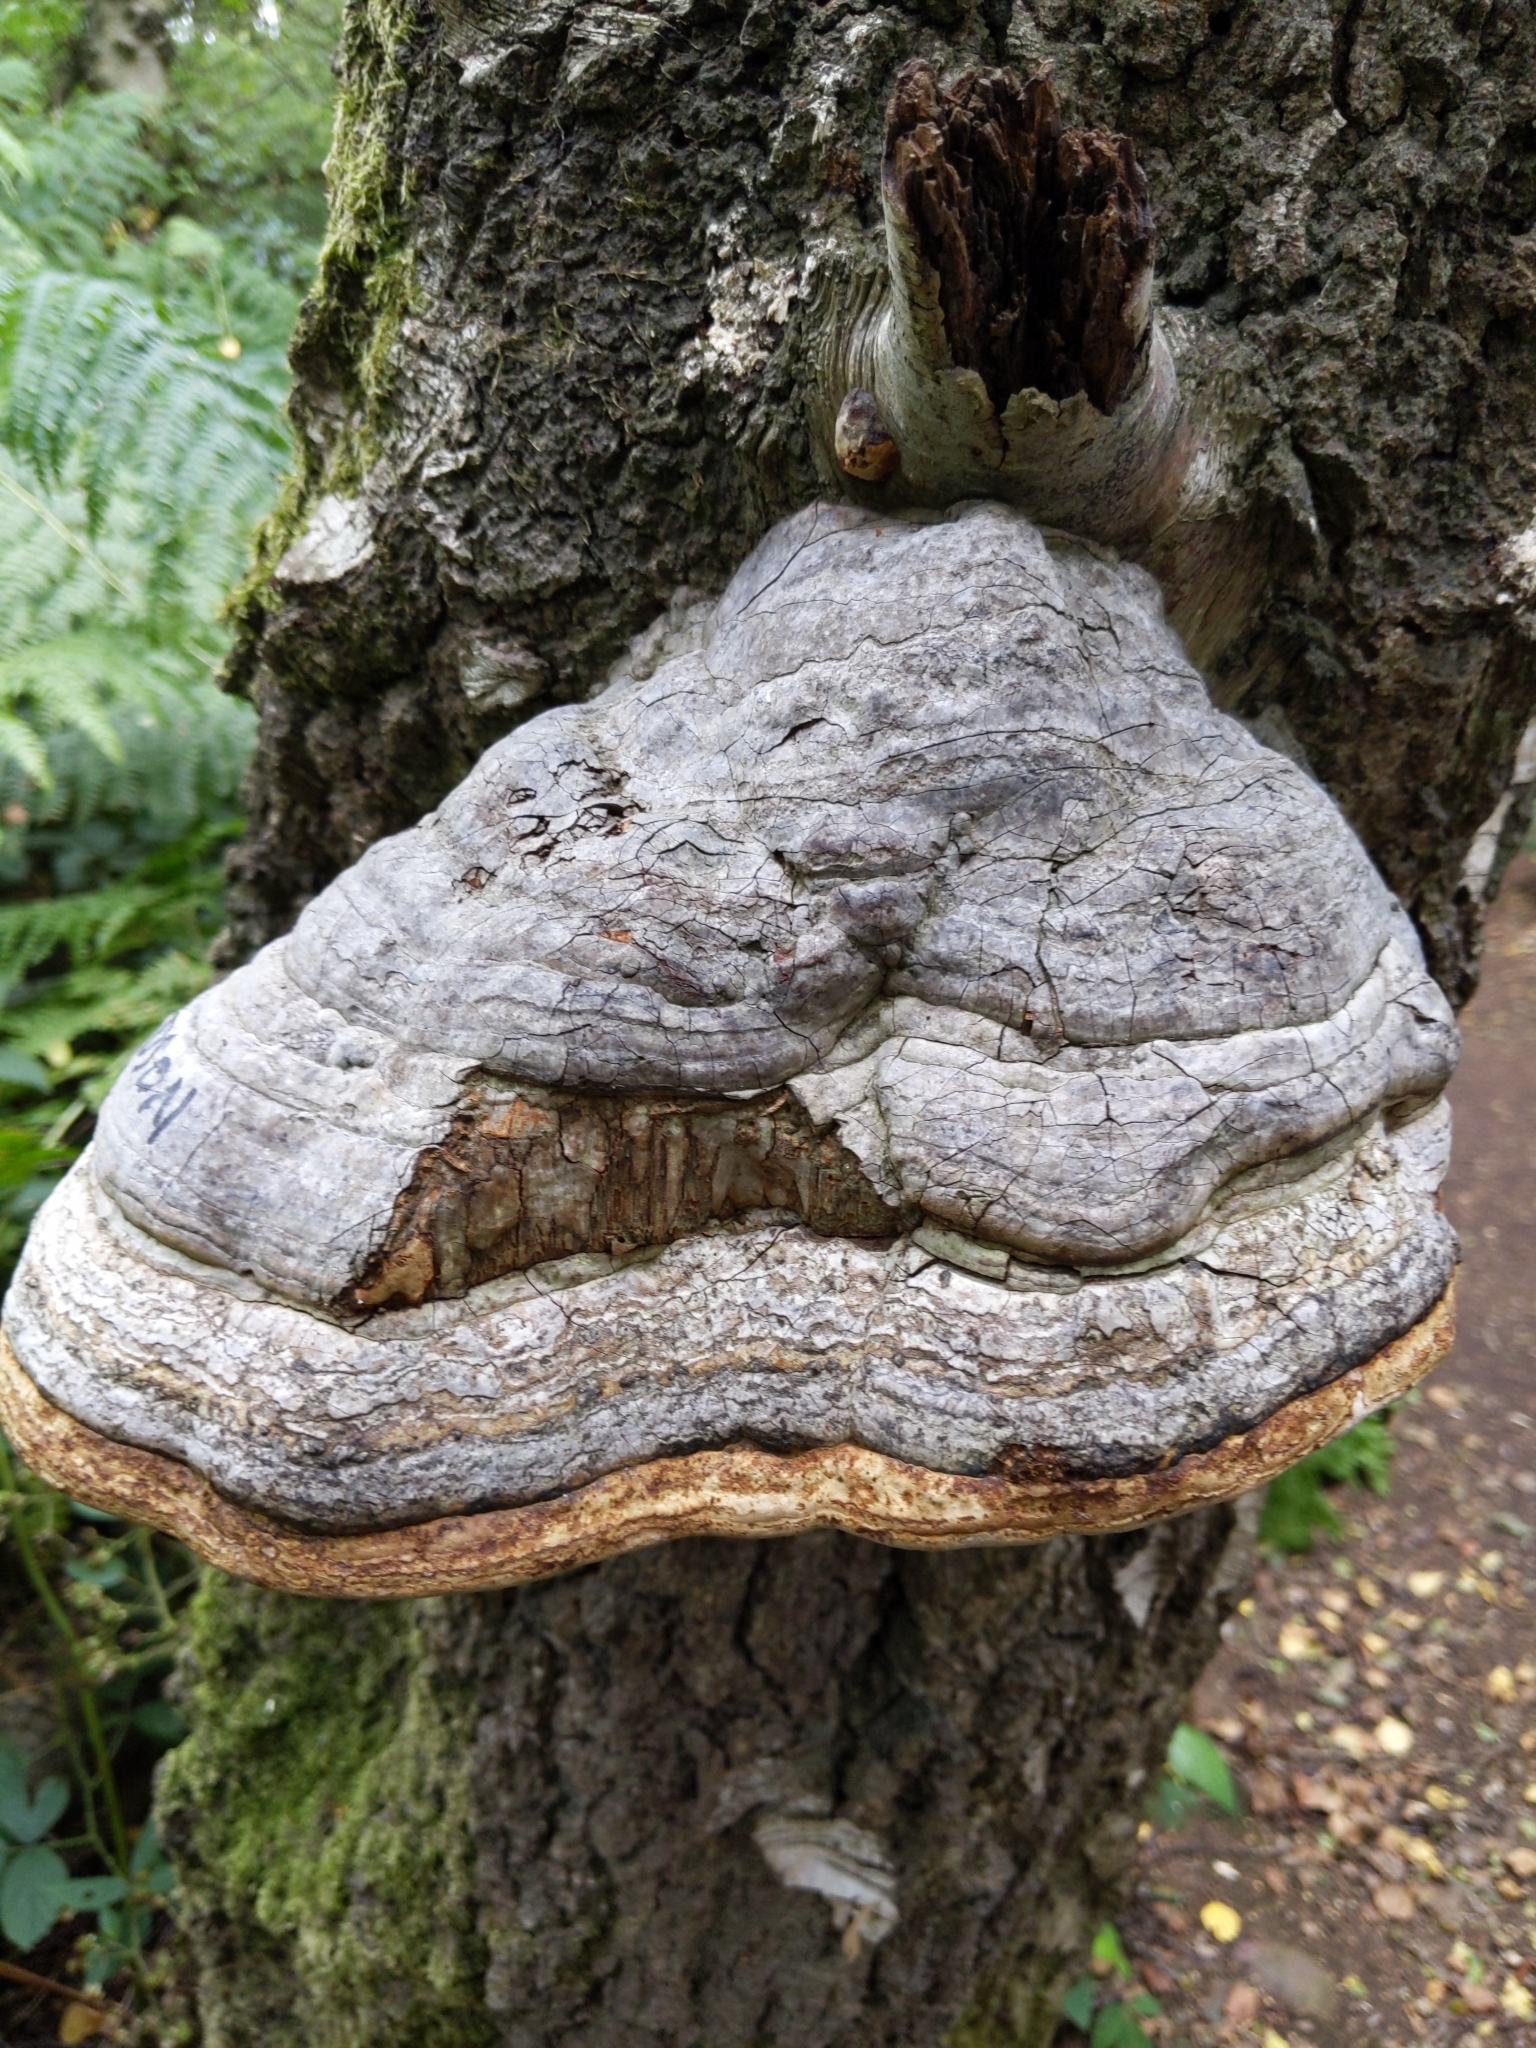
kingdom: Fungi
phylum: Basidiomycota
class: Agaricomycetes
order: Polyporales
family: Polyporaceae
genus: Fomes
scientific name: Fomes fomentarius
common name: Hoof fungus
